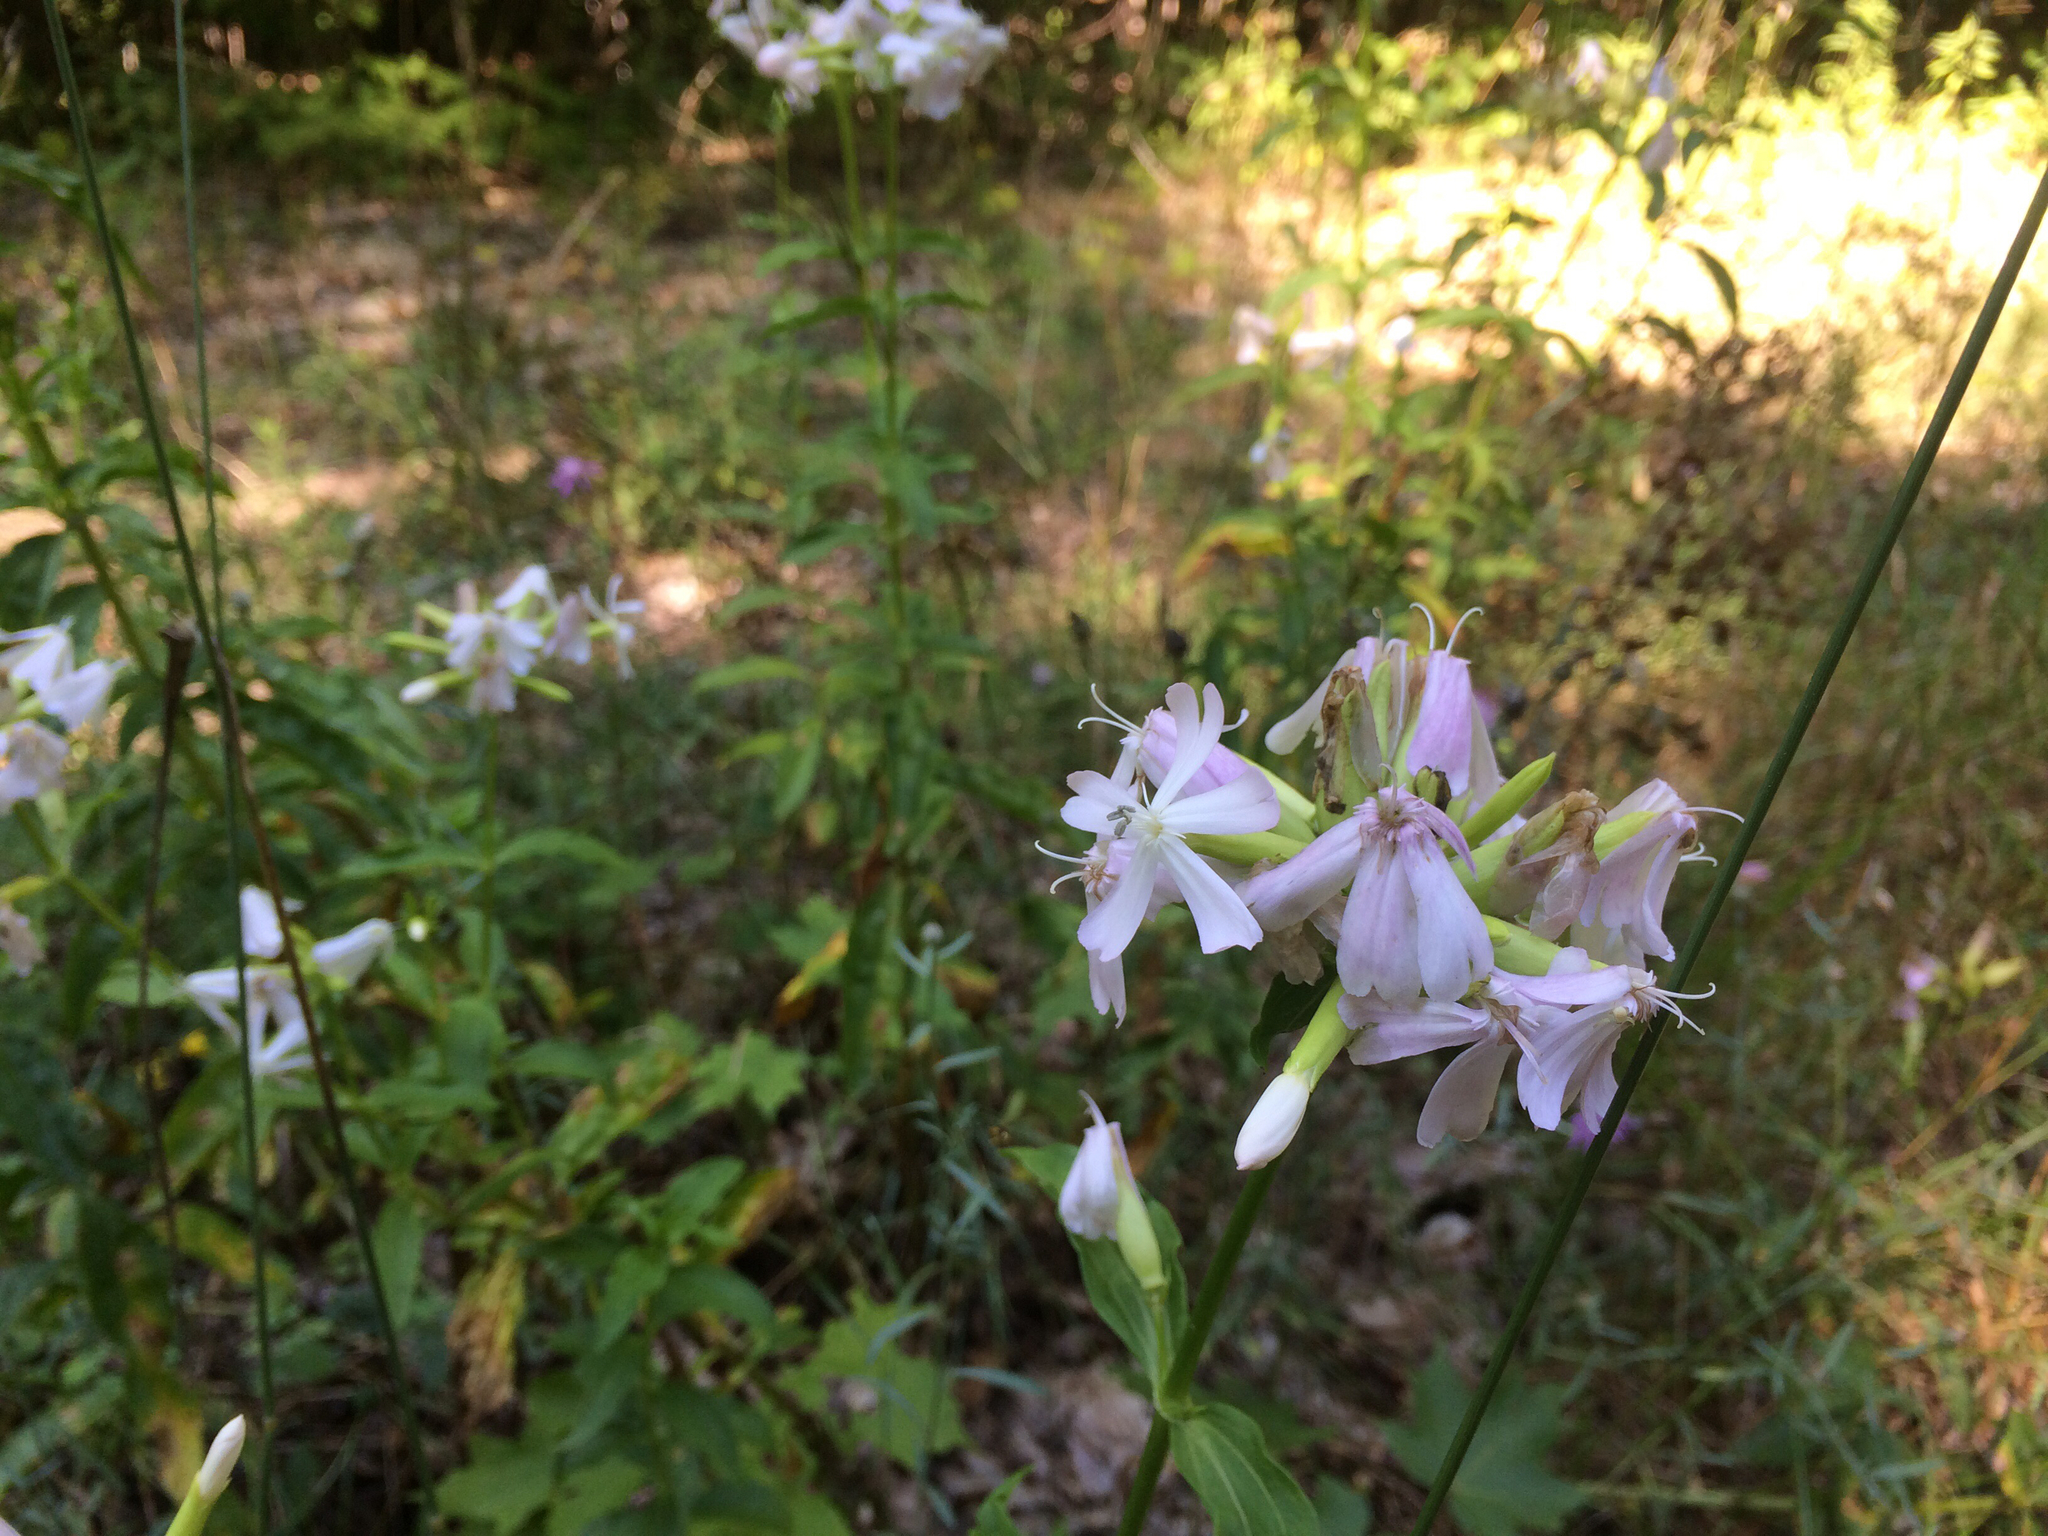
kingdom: Plantae
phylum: Tracheophyta
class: Magnoliopsida
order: Caryophyllales
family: Caryophyllaceae
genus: Saponaria
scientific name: Saponaria officinalis
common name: Soapwort
